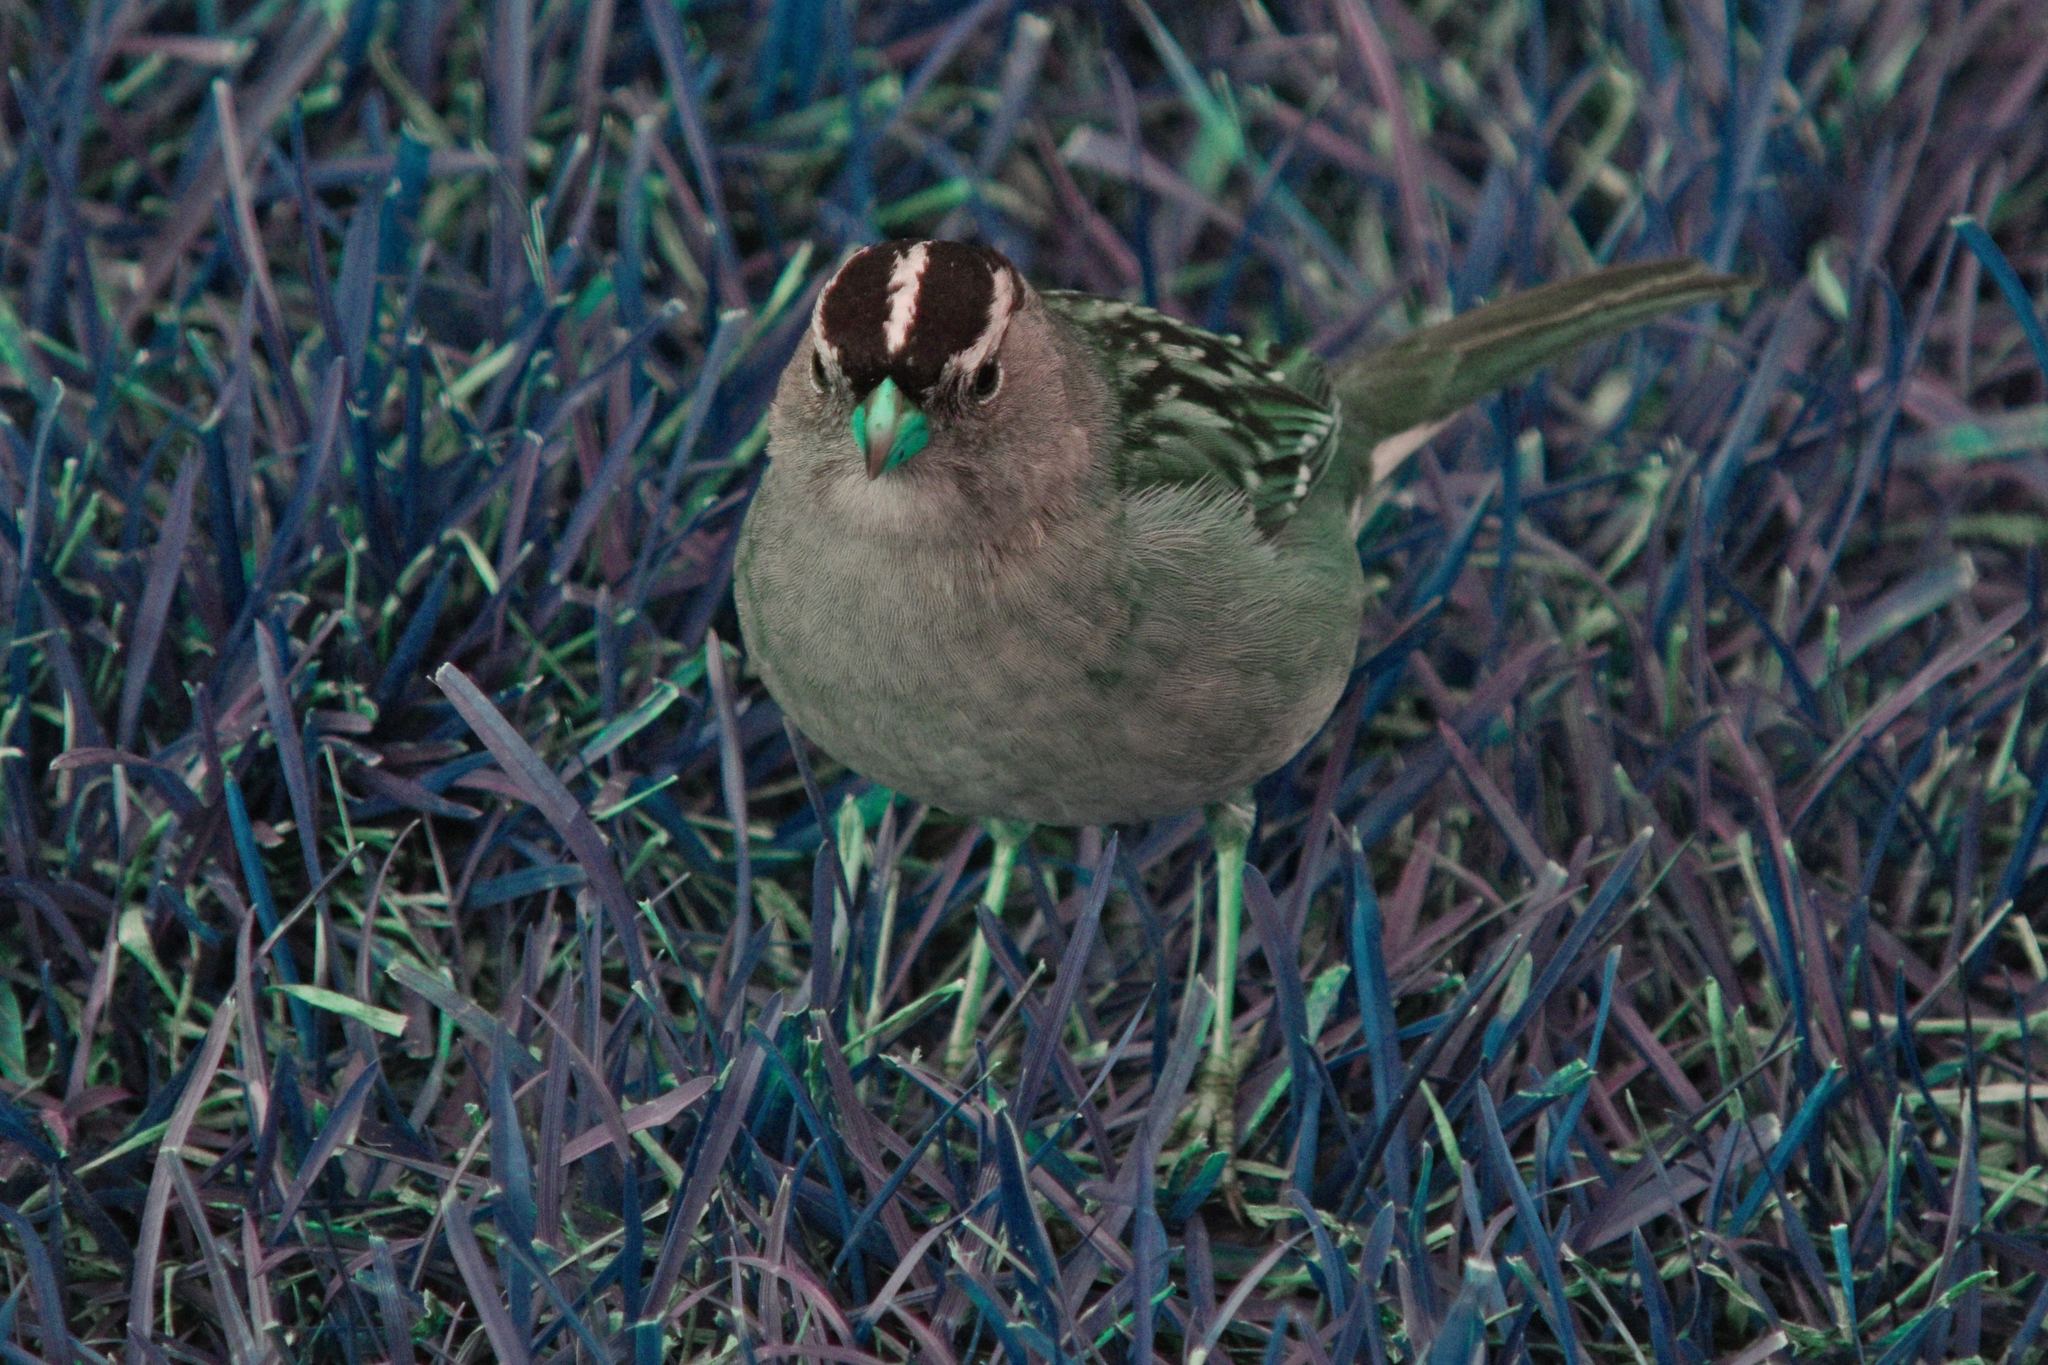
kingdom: Animalia
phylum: Chordata
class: Aves
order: Passeriformes
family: Passerellidae
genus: Zonotrichia
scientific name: Zonotrichia leucophrys
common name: White-crowned sparrow
